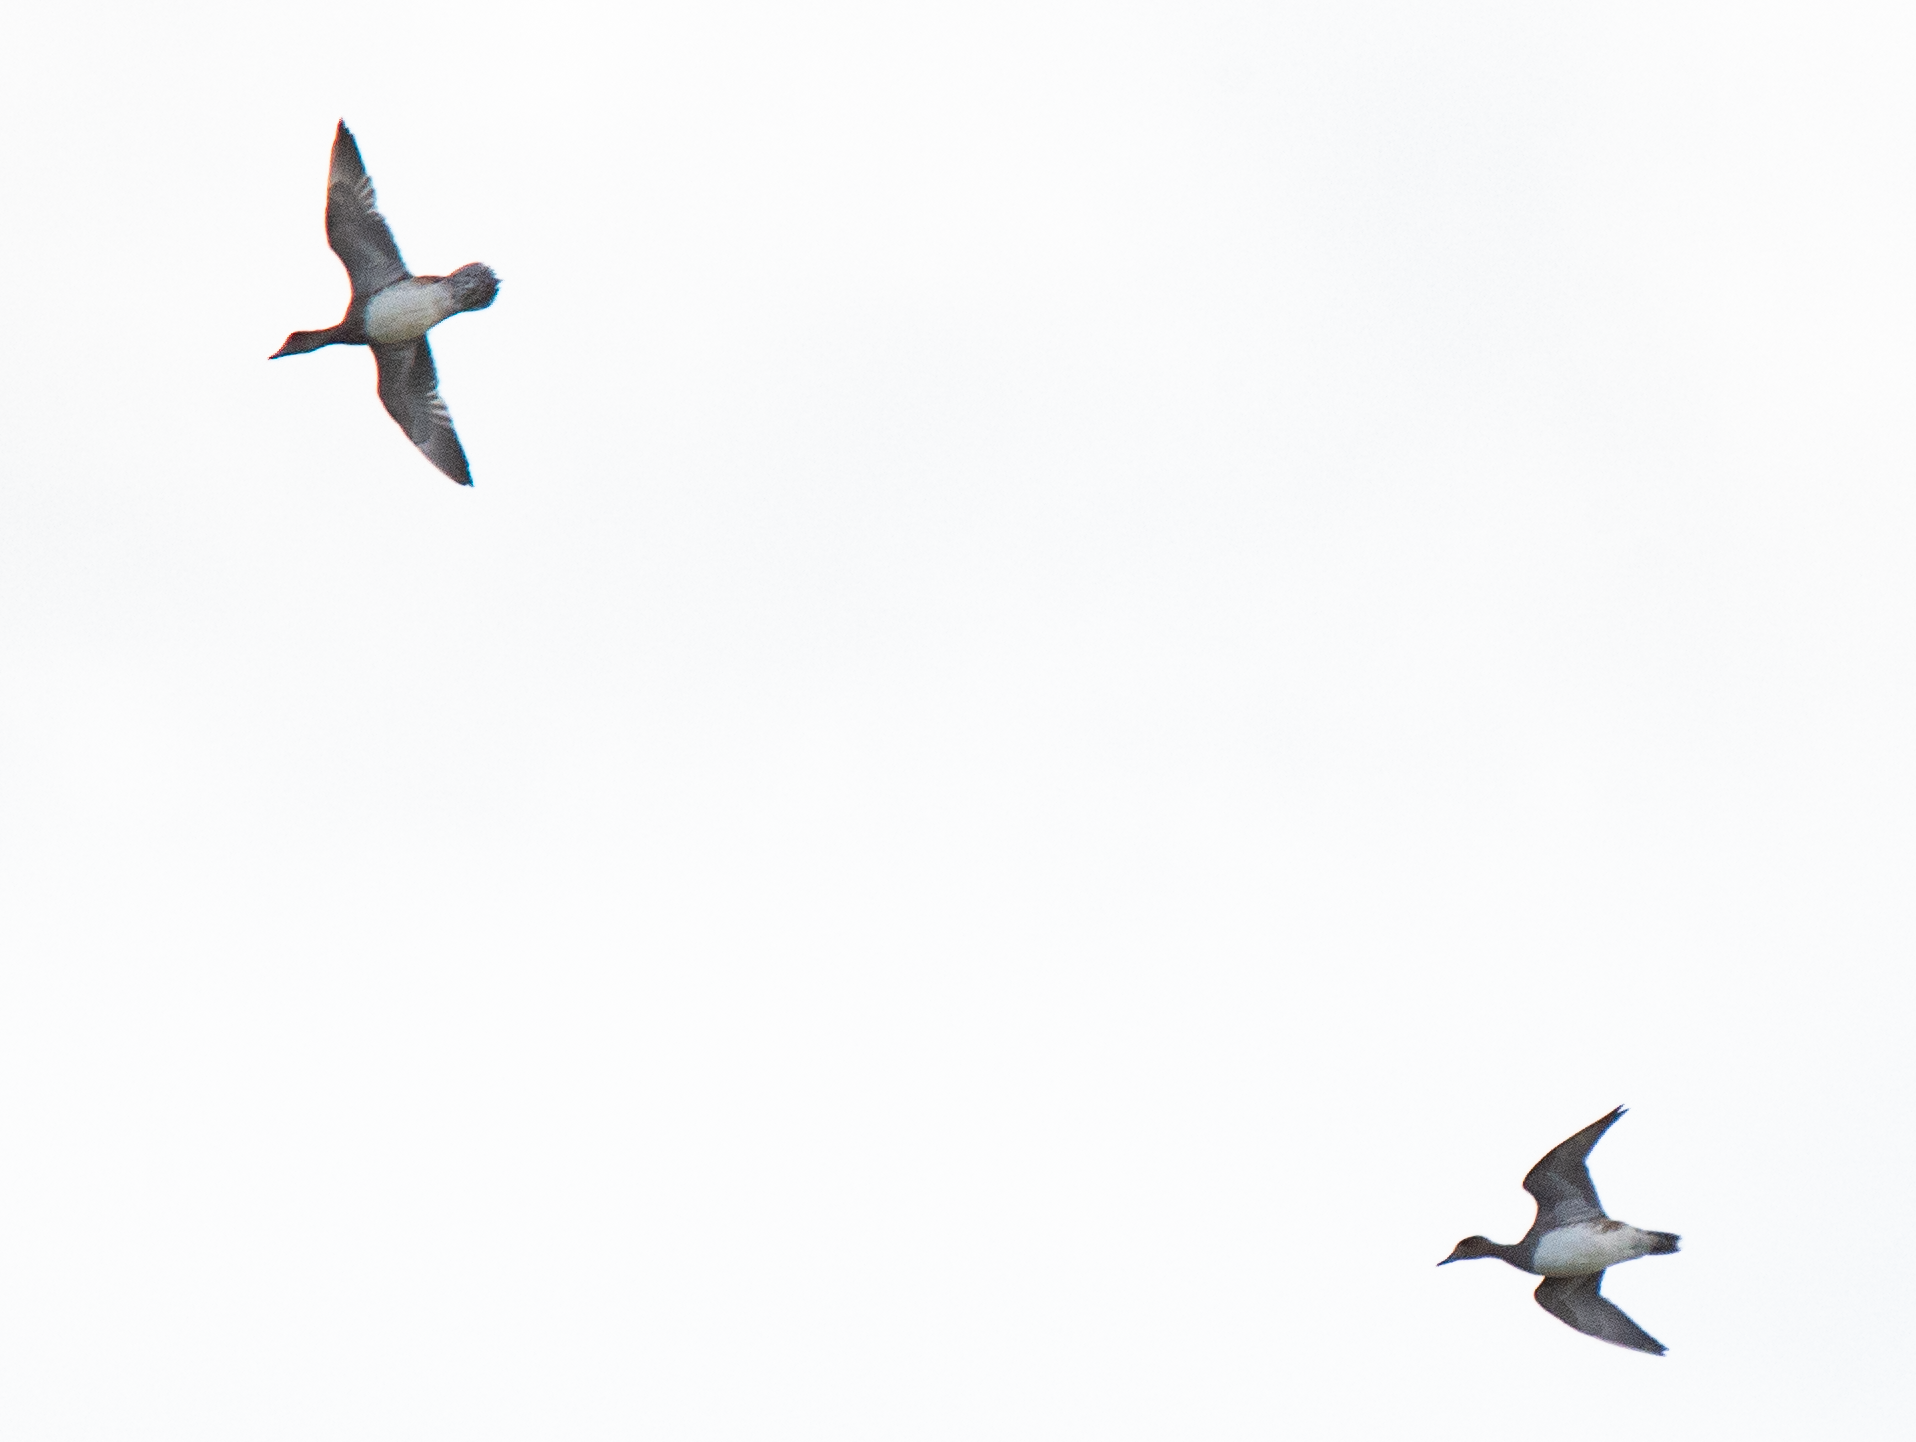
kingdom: Animalia
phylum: Chordata
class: Aves
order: Anseriformes
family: Anatidae
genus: Mareca
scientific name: Mareca penelope
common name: Eurasian wigeon
